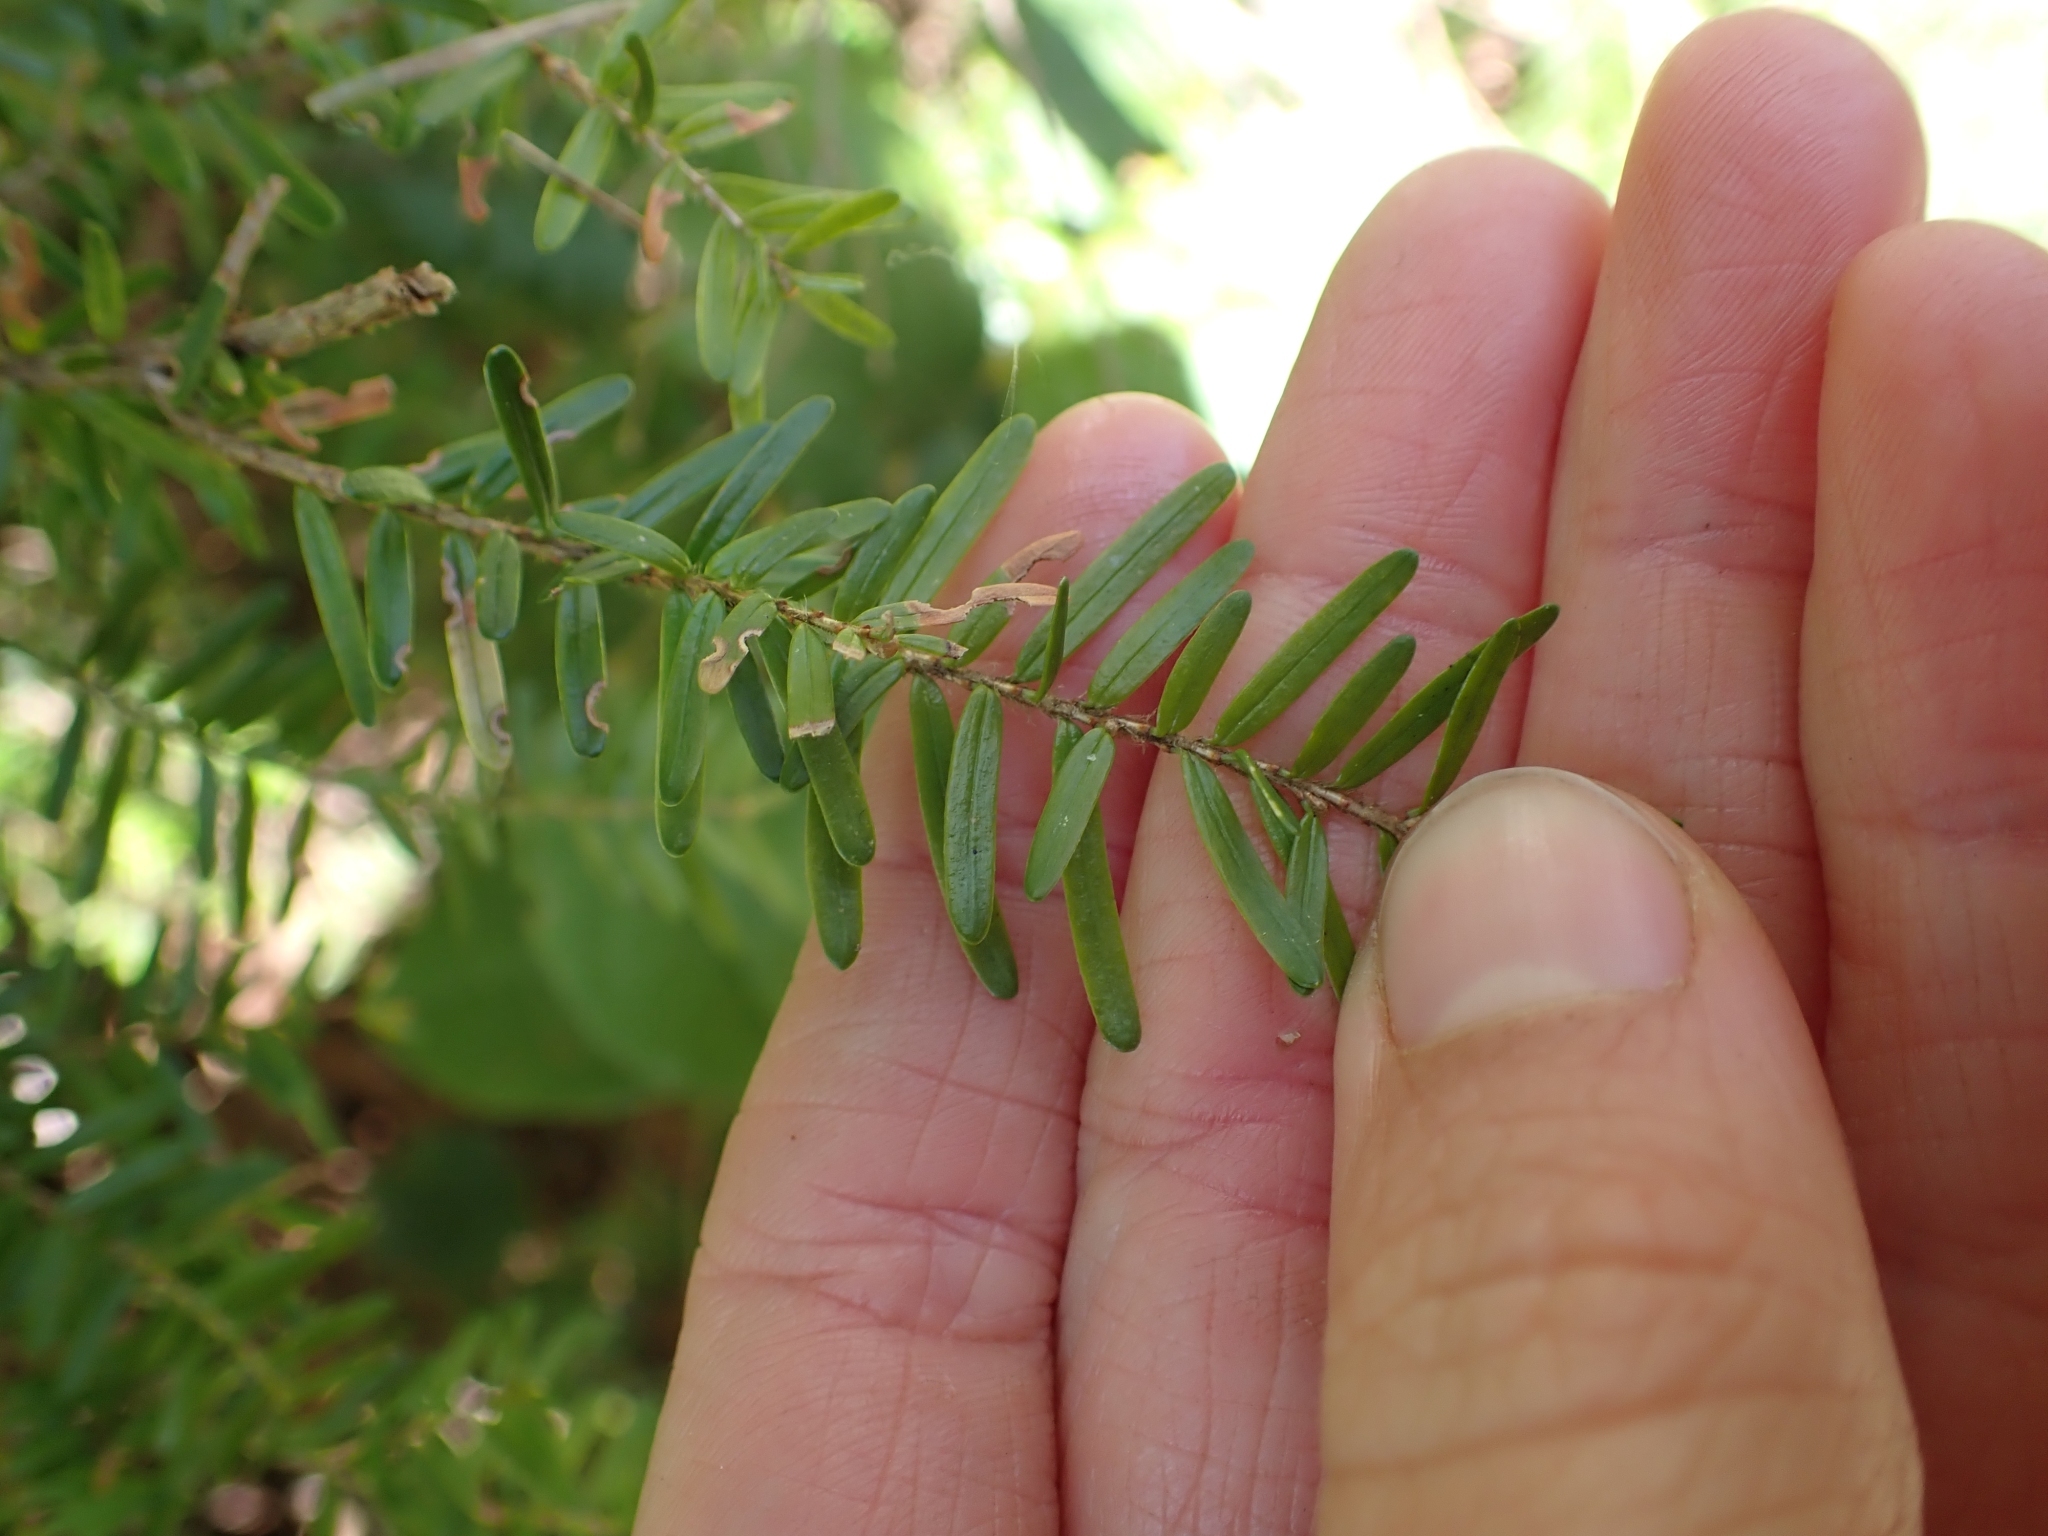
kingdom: Plantae
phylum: Tracheophyta
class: Pinopsida
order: Pinales
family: Pinaceae
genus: Tsuga
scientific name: Tsuga heterophylla
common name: Western hemlock
